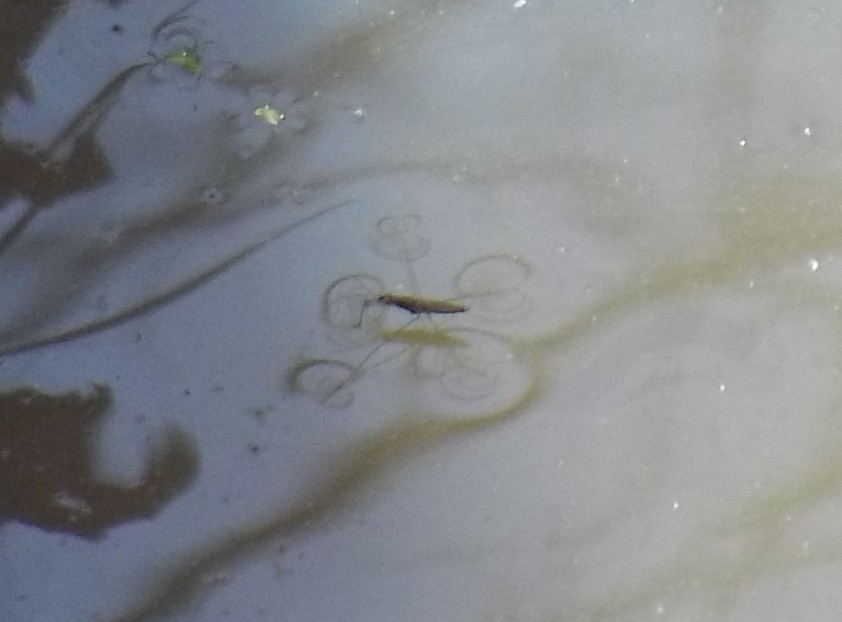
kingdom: Animalia
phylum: Arthropoda
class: Insecta
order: Hemiptera
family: Gerridae
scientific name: Gerridae
